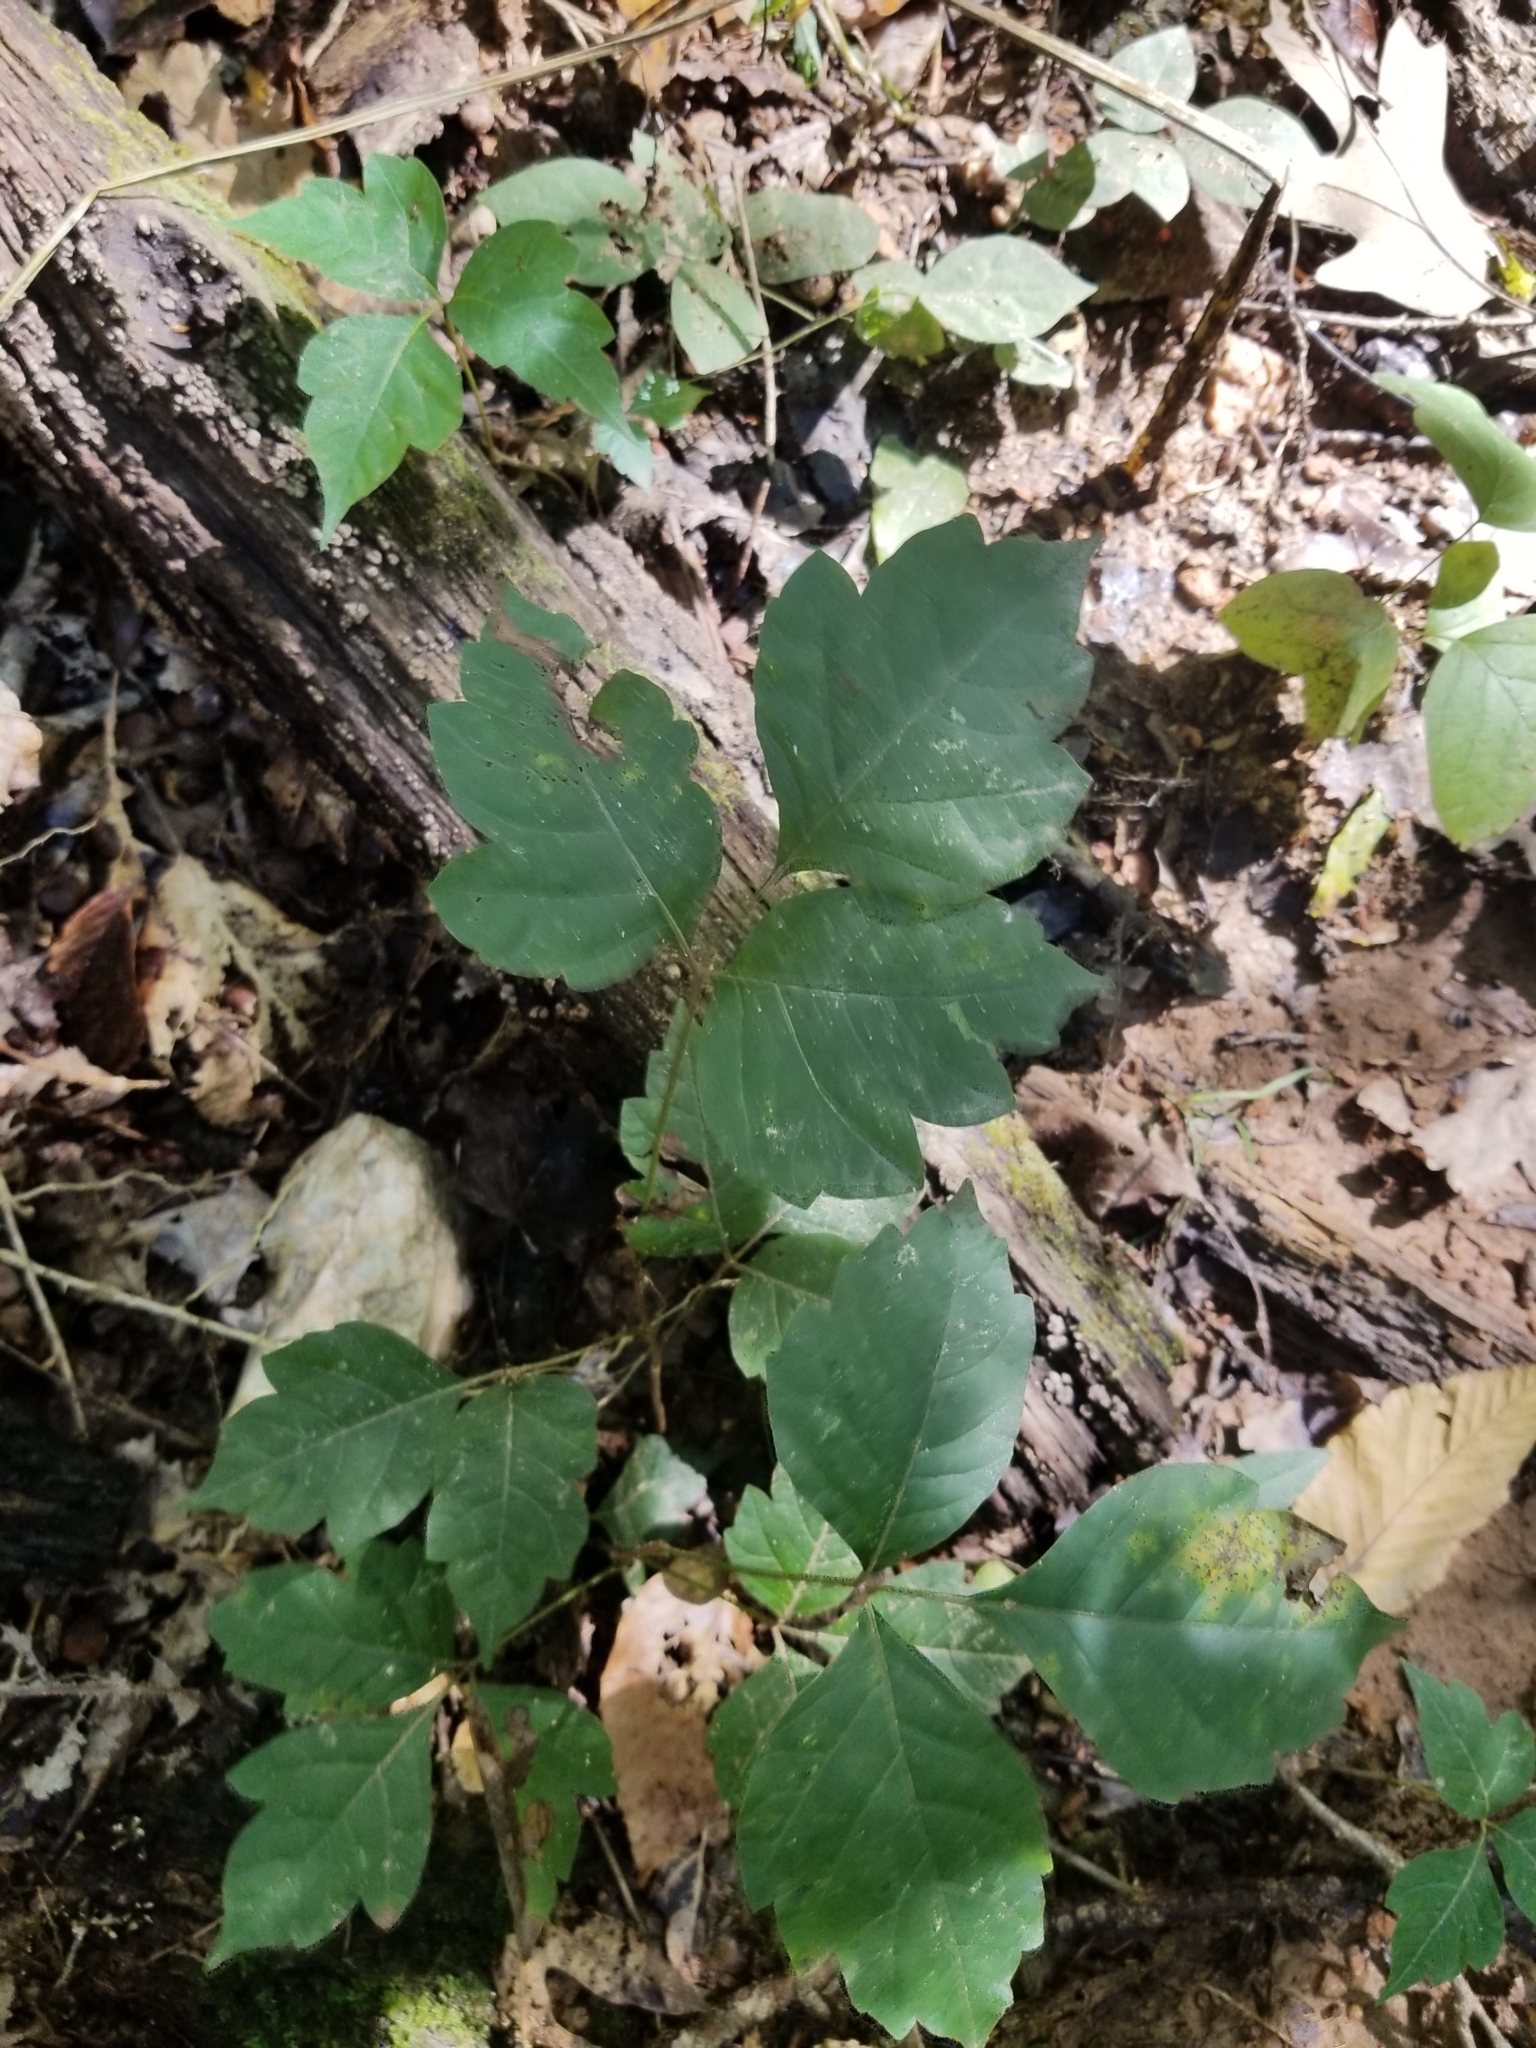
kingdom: Plantae
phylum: Tracheophyta
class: Magnoliopsida
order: Sapindales
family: Anacardiaceae
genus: Toxicodendron
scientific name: Toxicodendron radicans
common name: Poison ivy
